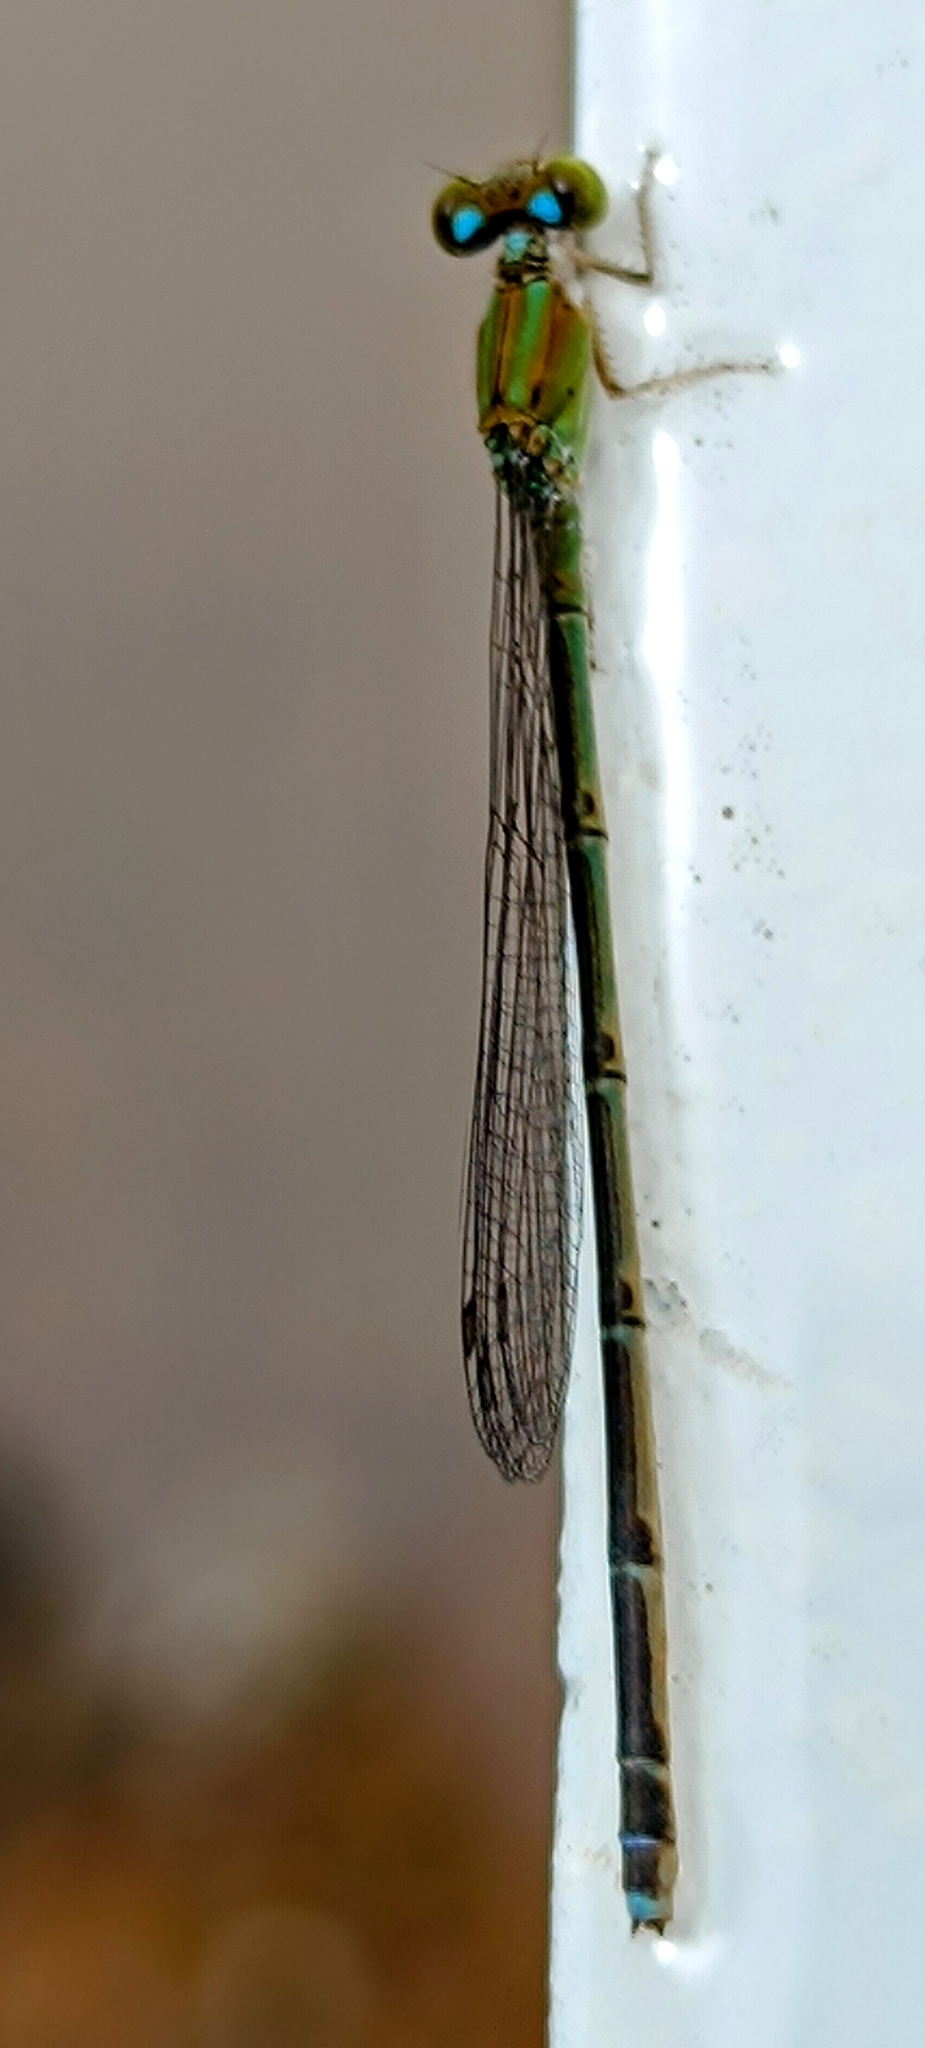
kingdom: Animalia
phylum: Arthropoda
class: Insecta
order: Odonata
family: Coenagrionidae
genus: Pseudagrion
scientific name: Pseudagrion microcephalum
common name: Blue riverdamsel
